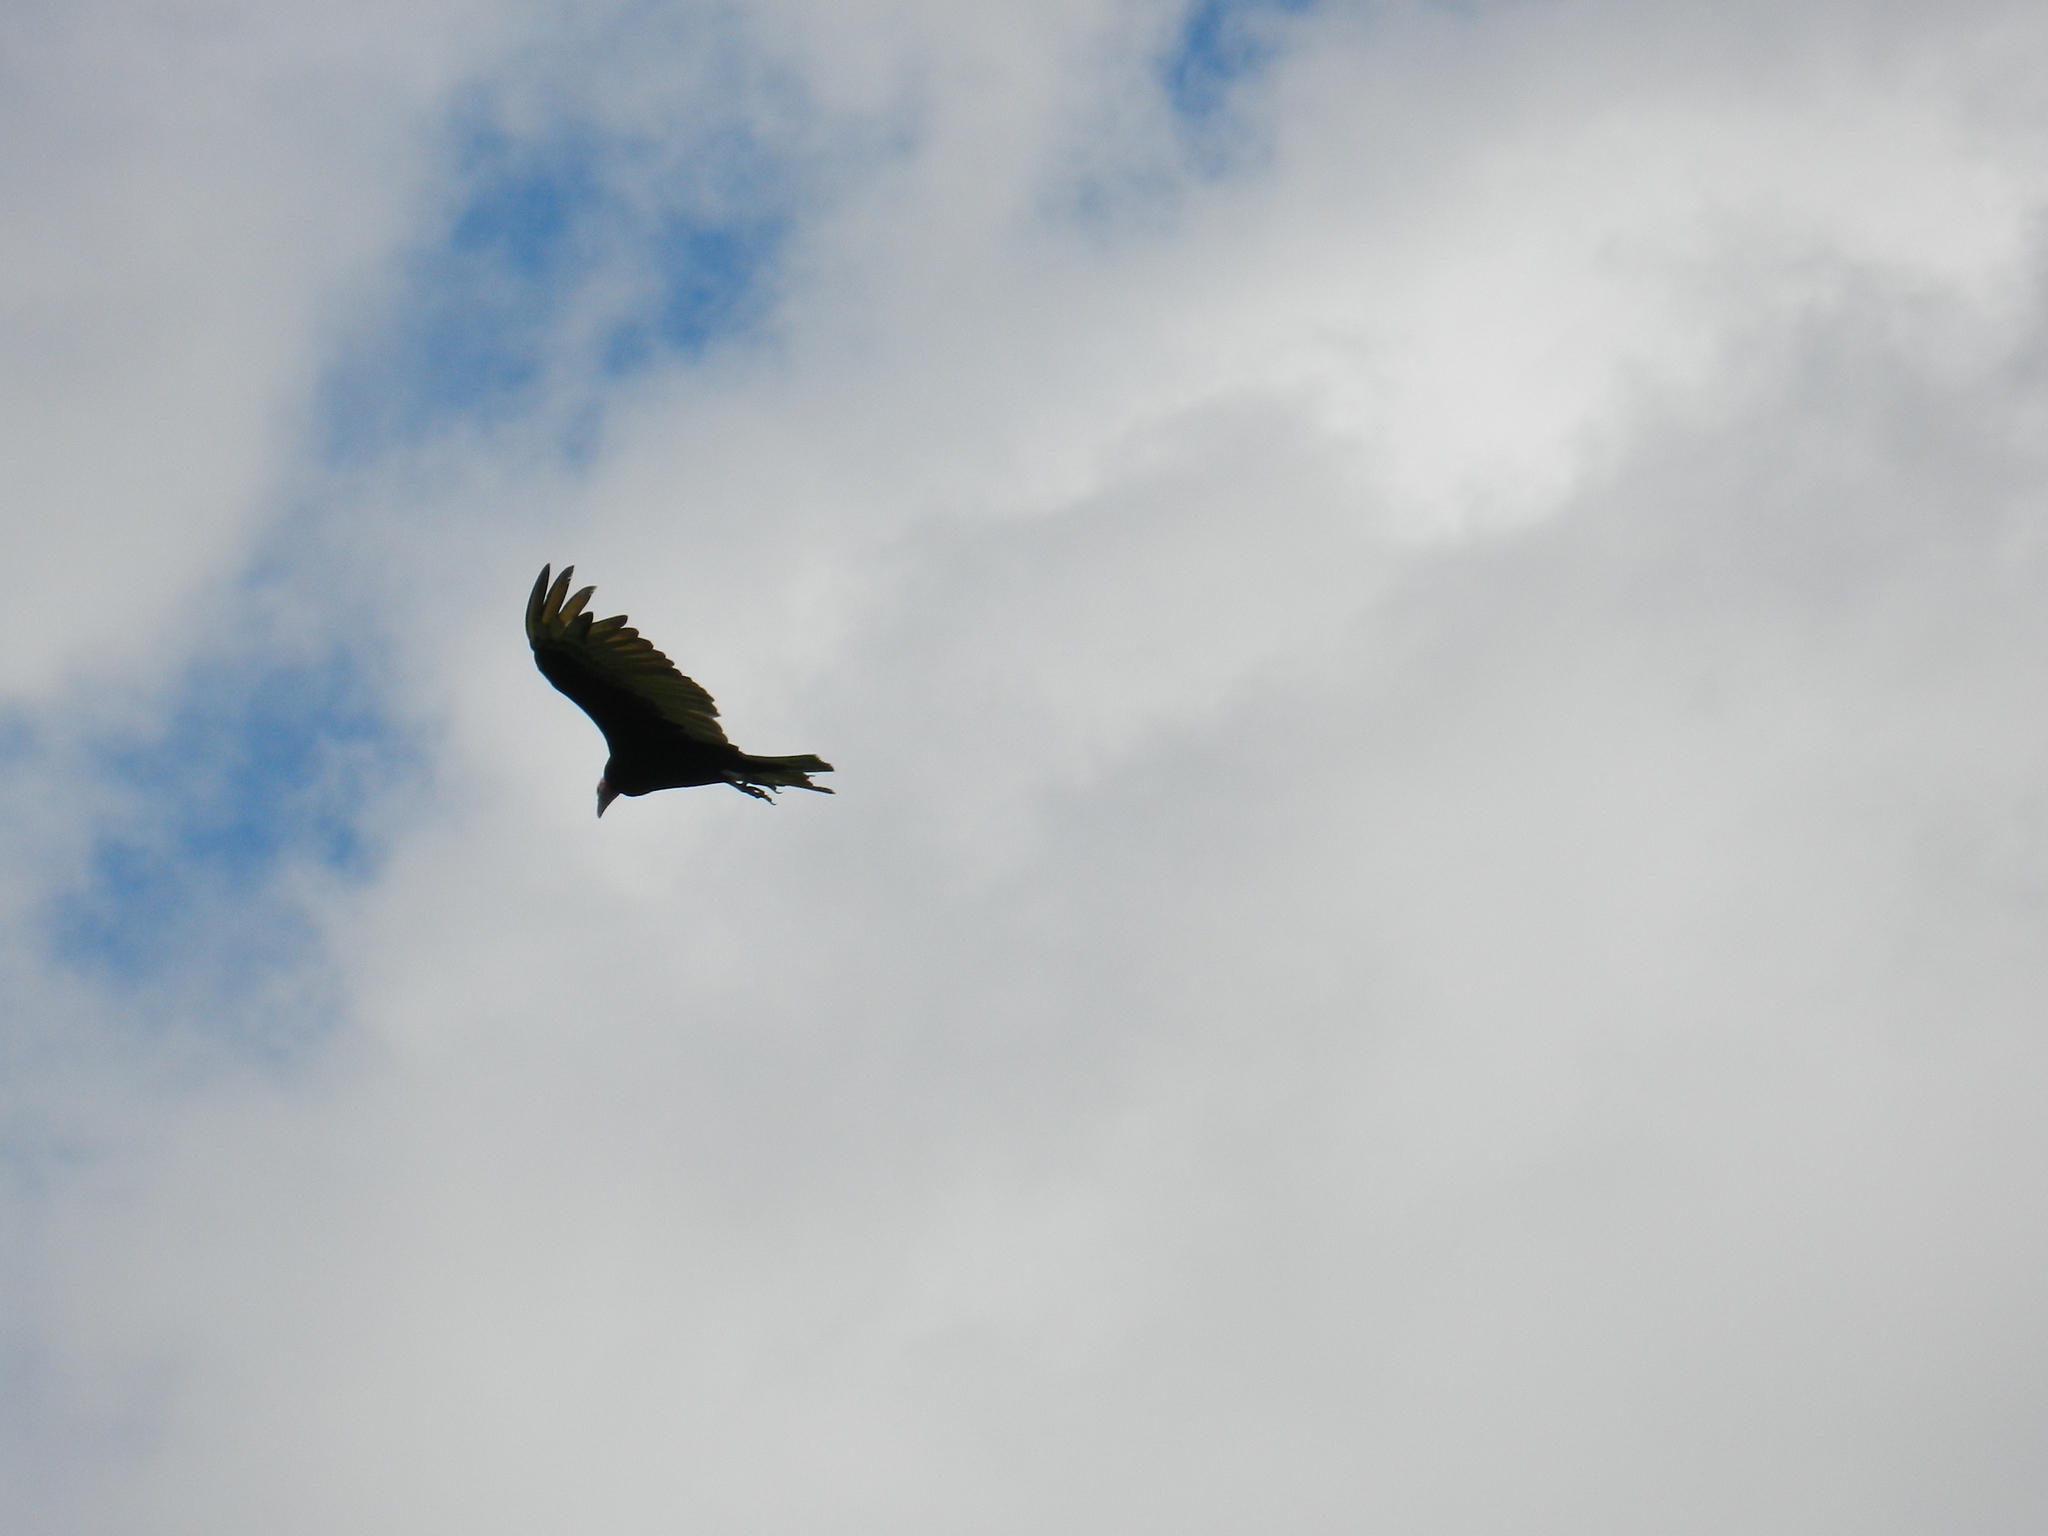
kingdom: Animalia
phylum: Chordata
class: Aves
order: Accipitriformes
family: Cathartidae
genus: Cathartes
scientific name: Cathartes burrovianus
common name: Lesser yellow-headed vulture
